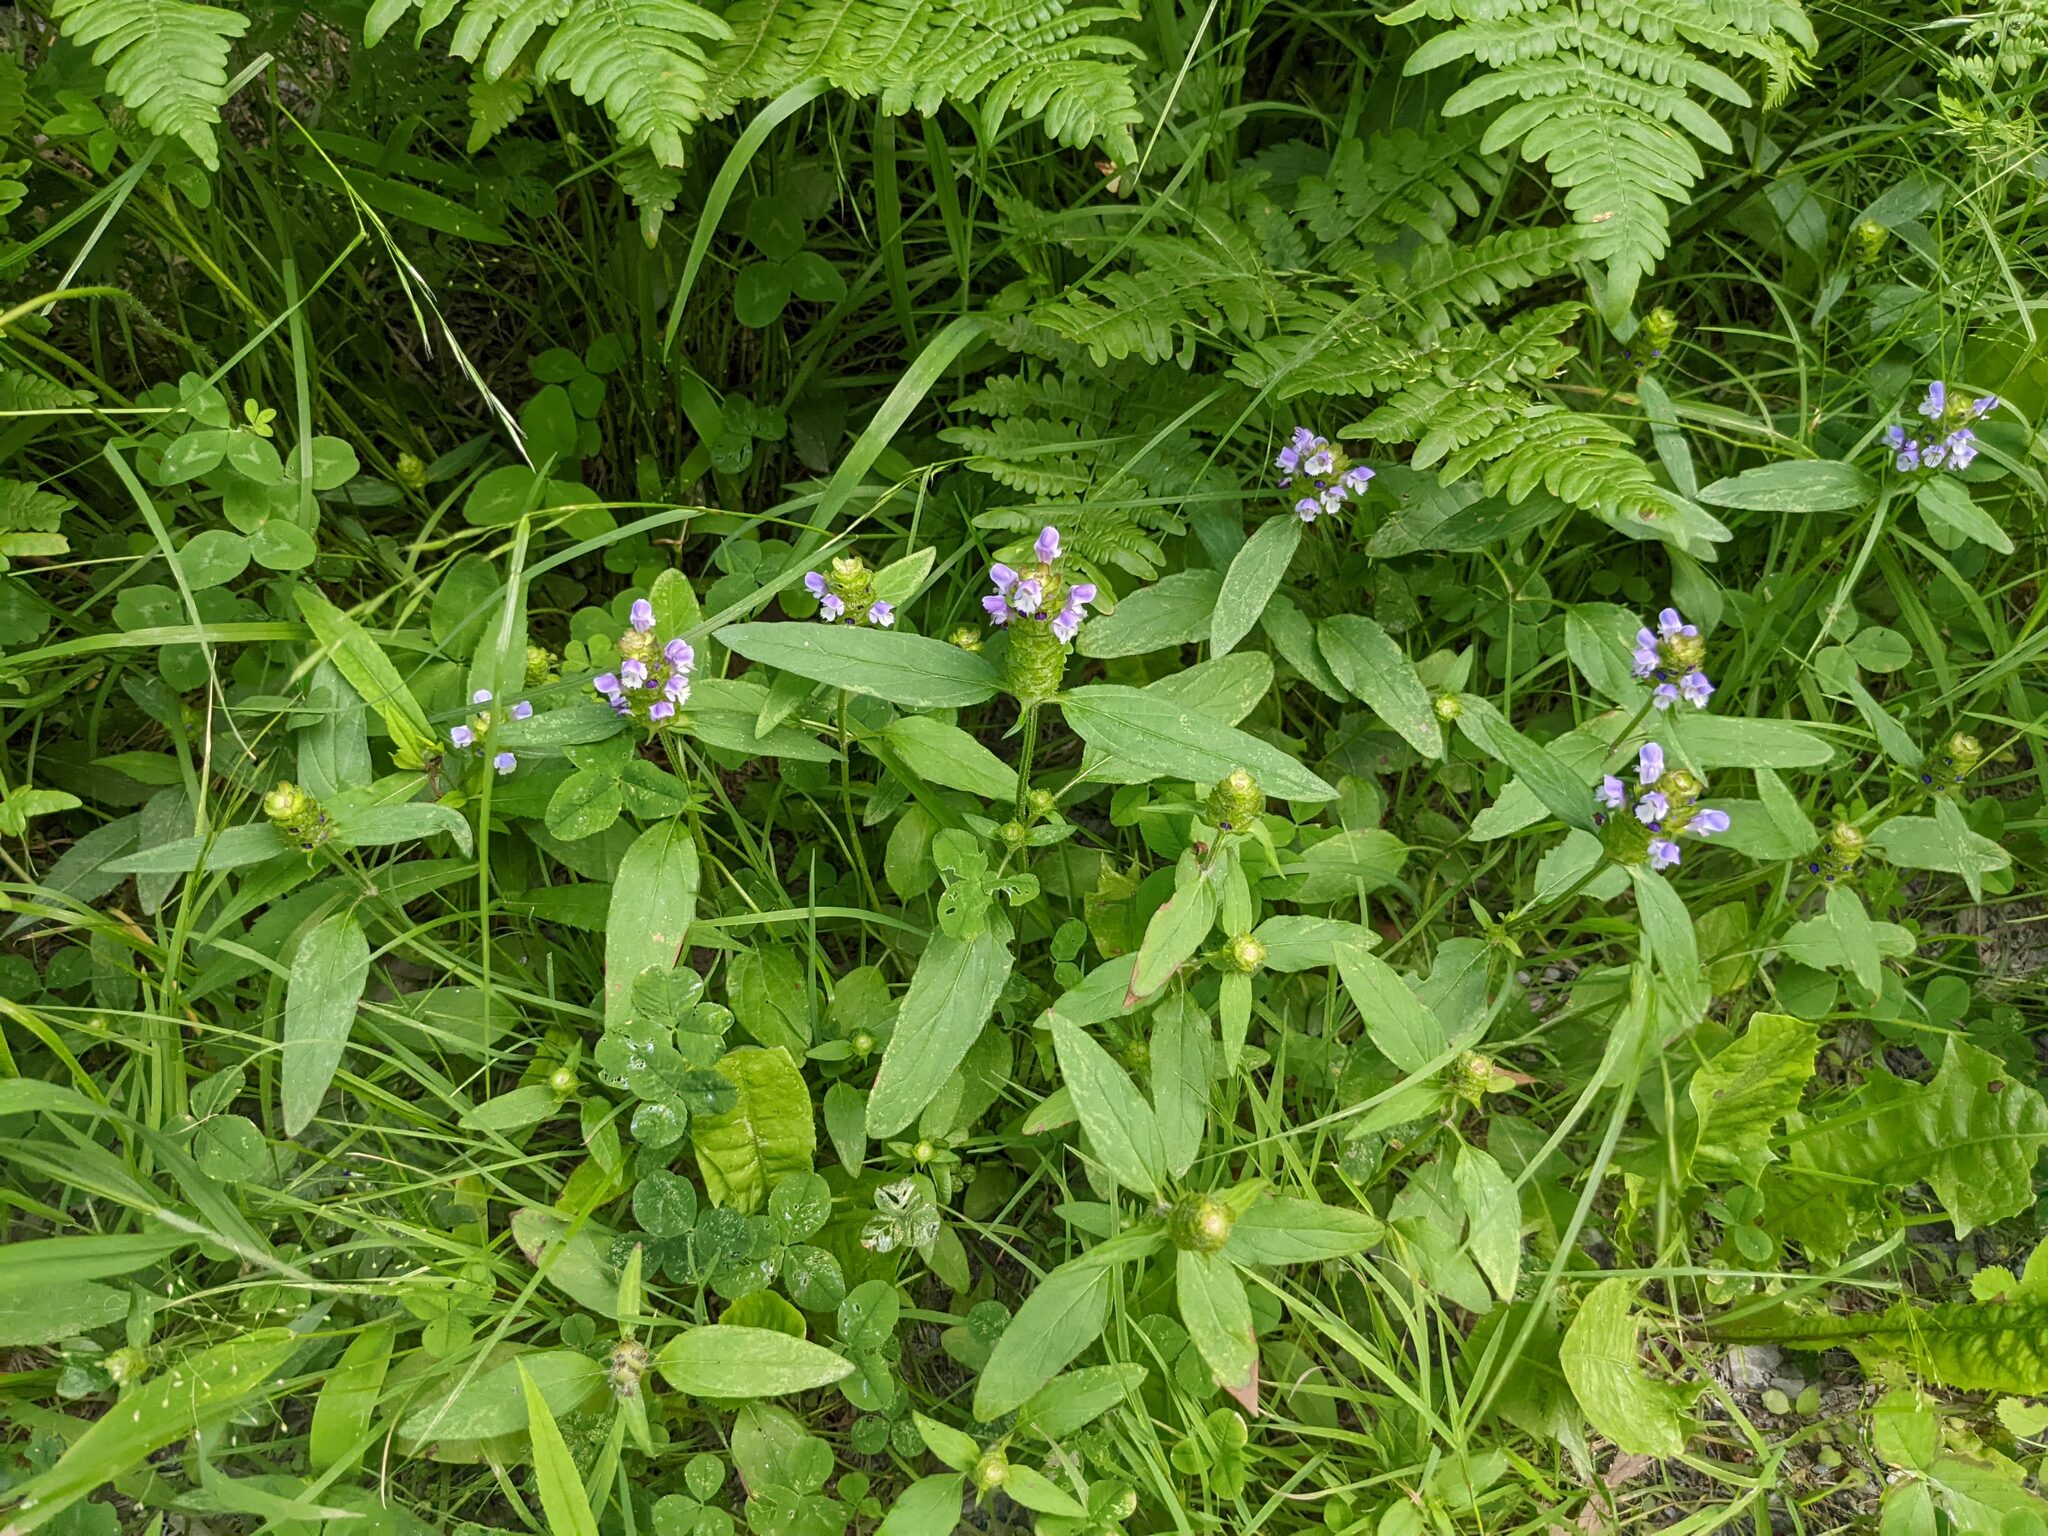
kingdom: Plantae
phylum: Tracheophyta
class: Magnoliopsida
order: Lamiales
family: Lamiaceae
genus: Prunella
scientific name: Prunella vulgaris
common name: Heal-all
